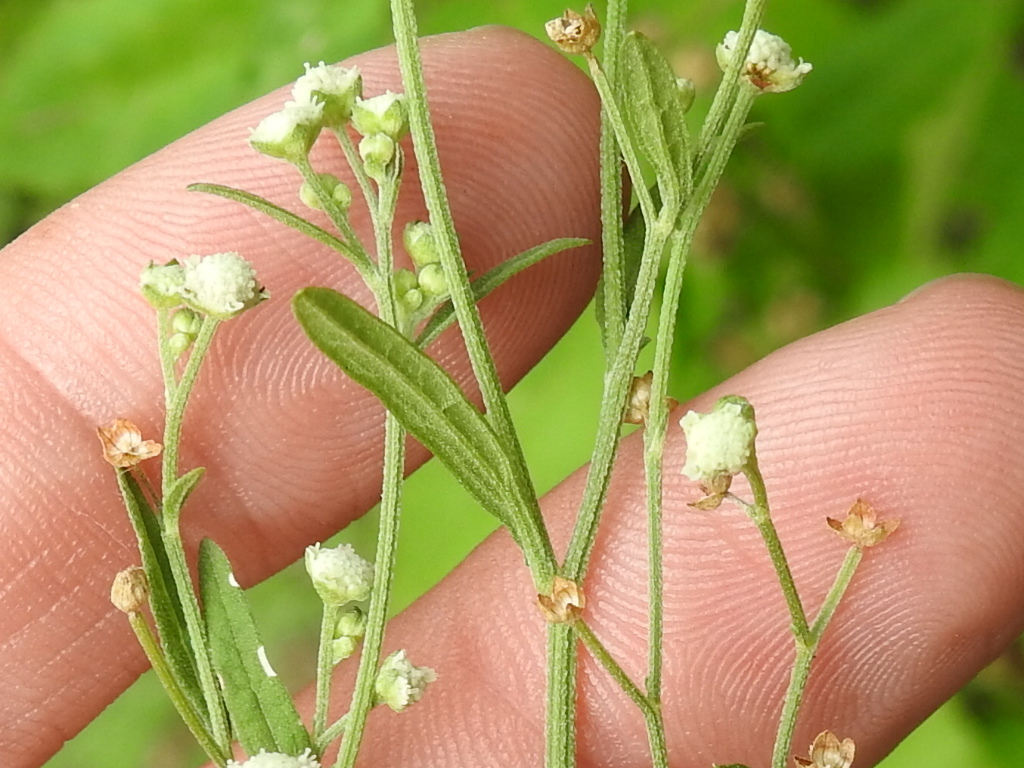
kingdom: Plantae
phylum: Tracheophyta
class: Magnoliopsida
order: Asterales
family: Asteraceae
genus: Parthenium
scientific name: Parthenium hysterophorus
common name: Santa maria feverfew
